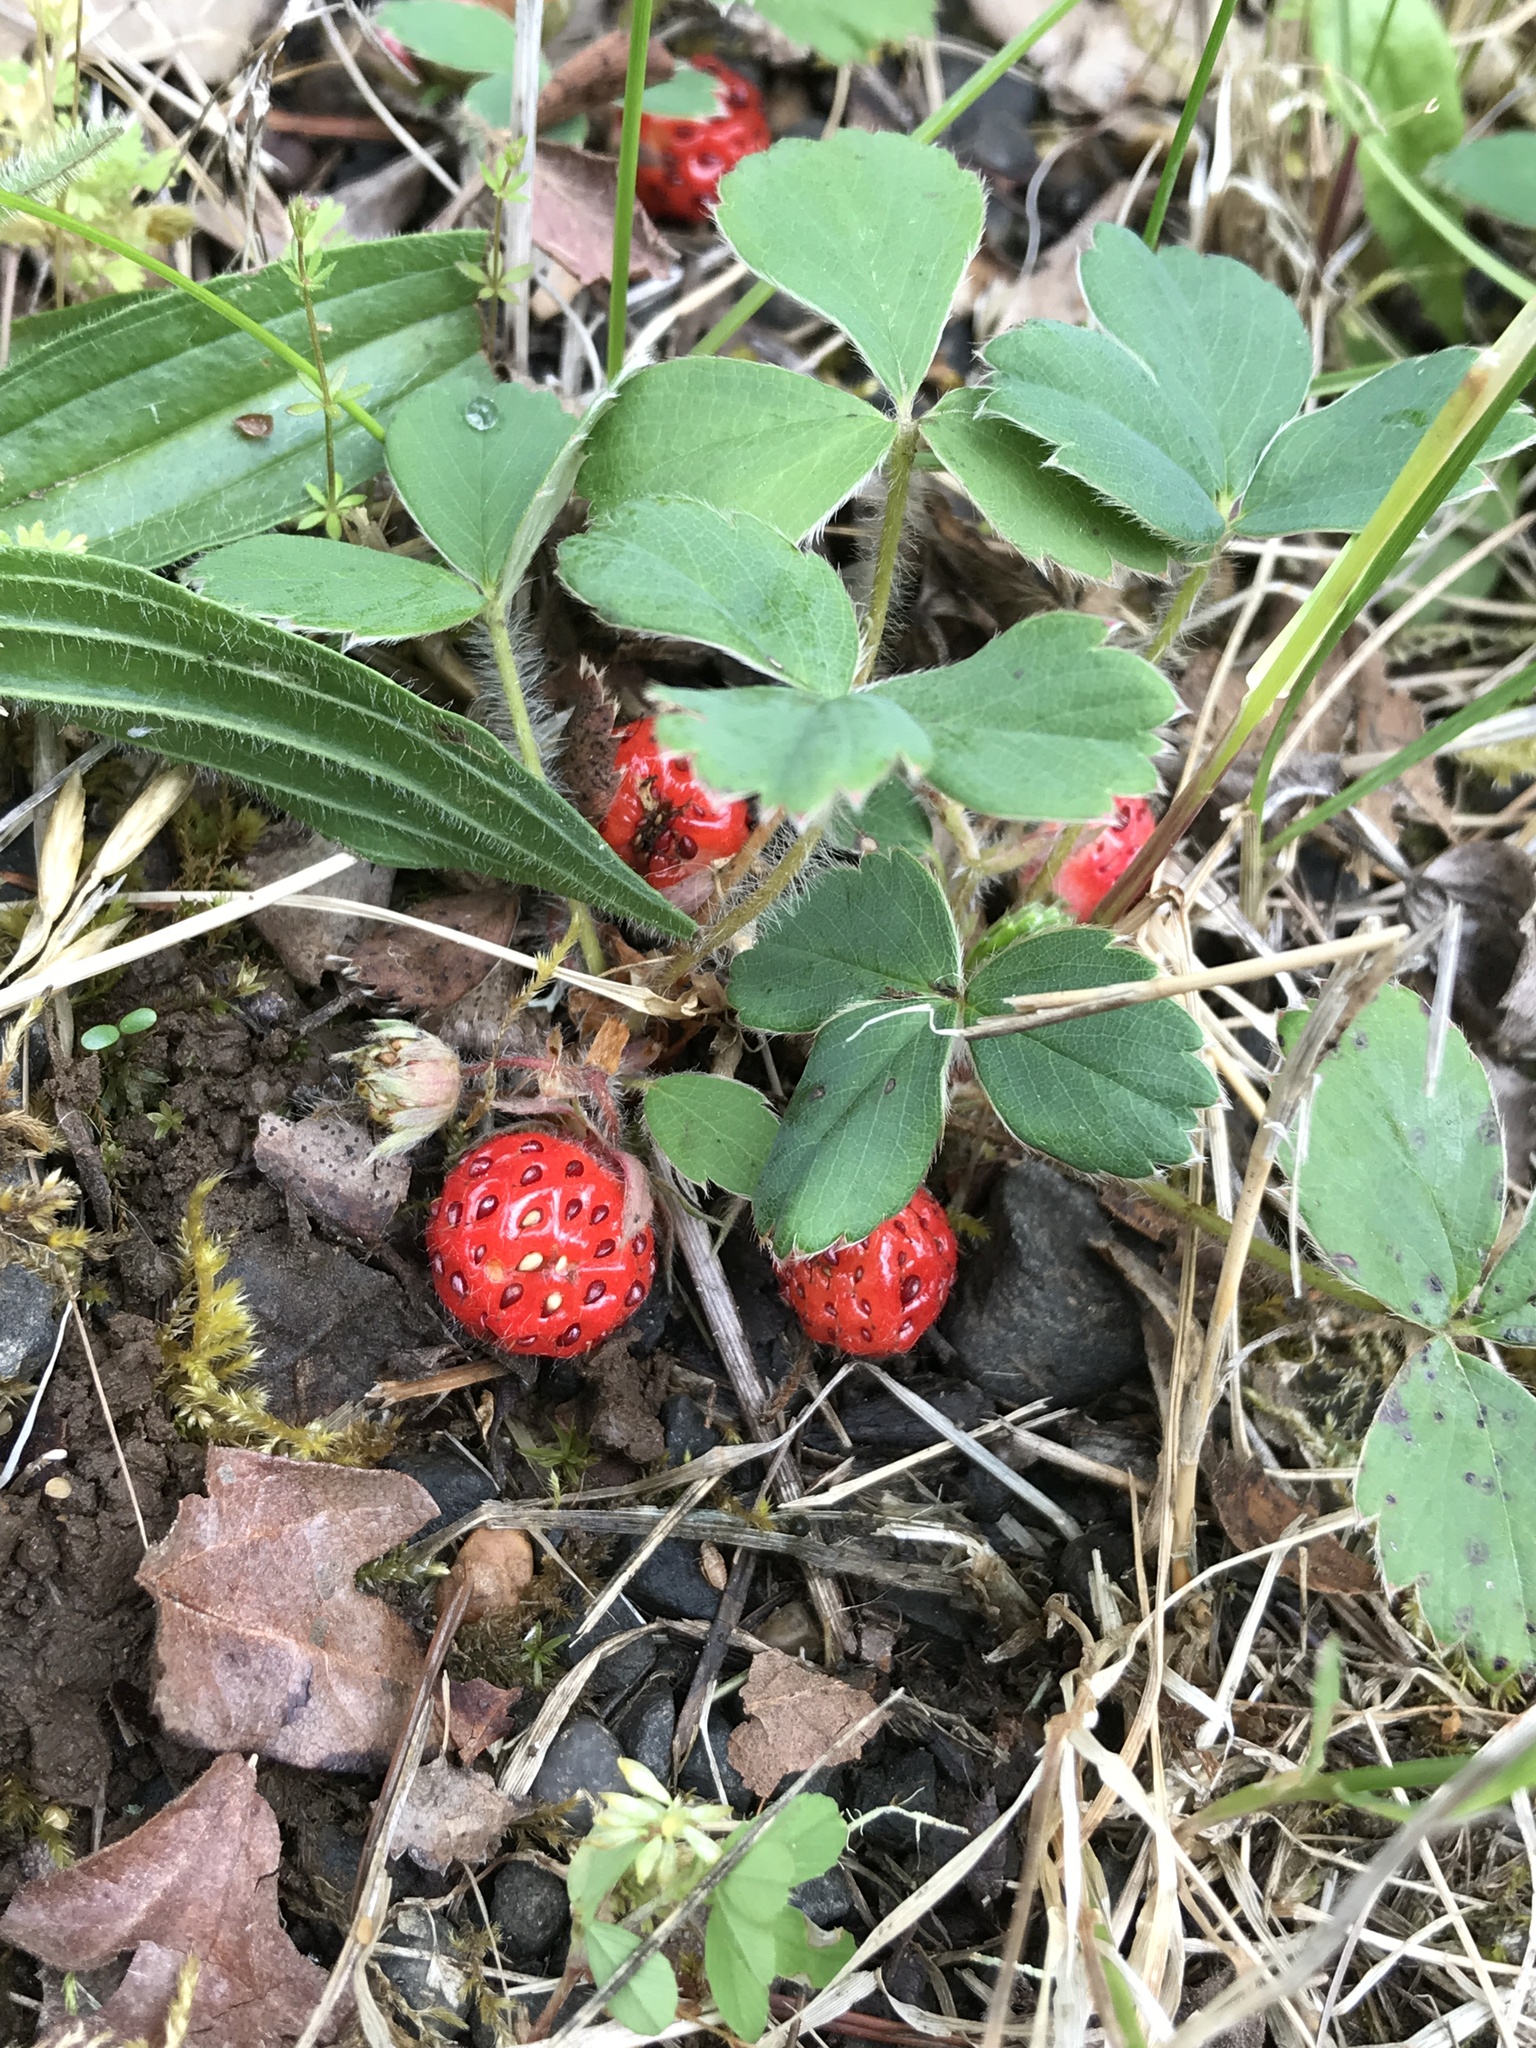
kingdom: Plantae
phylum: Tracheophyta
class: Magnoliopsida
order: Rosales
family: Rosaceae
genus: Fragaria
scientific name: Fragaria ananassa
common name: Garden strawberry
